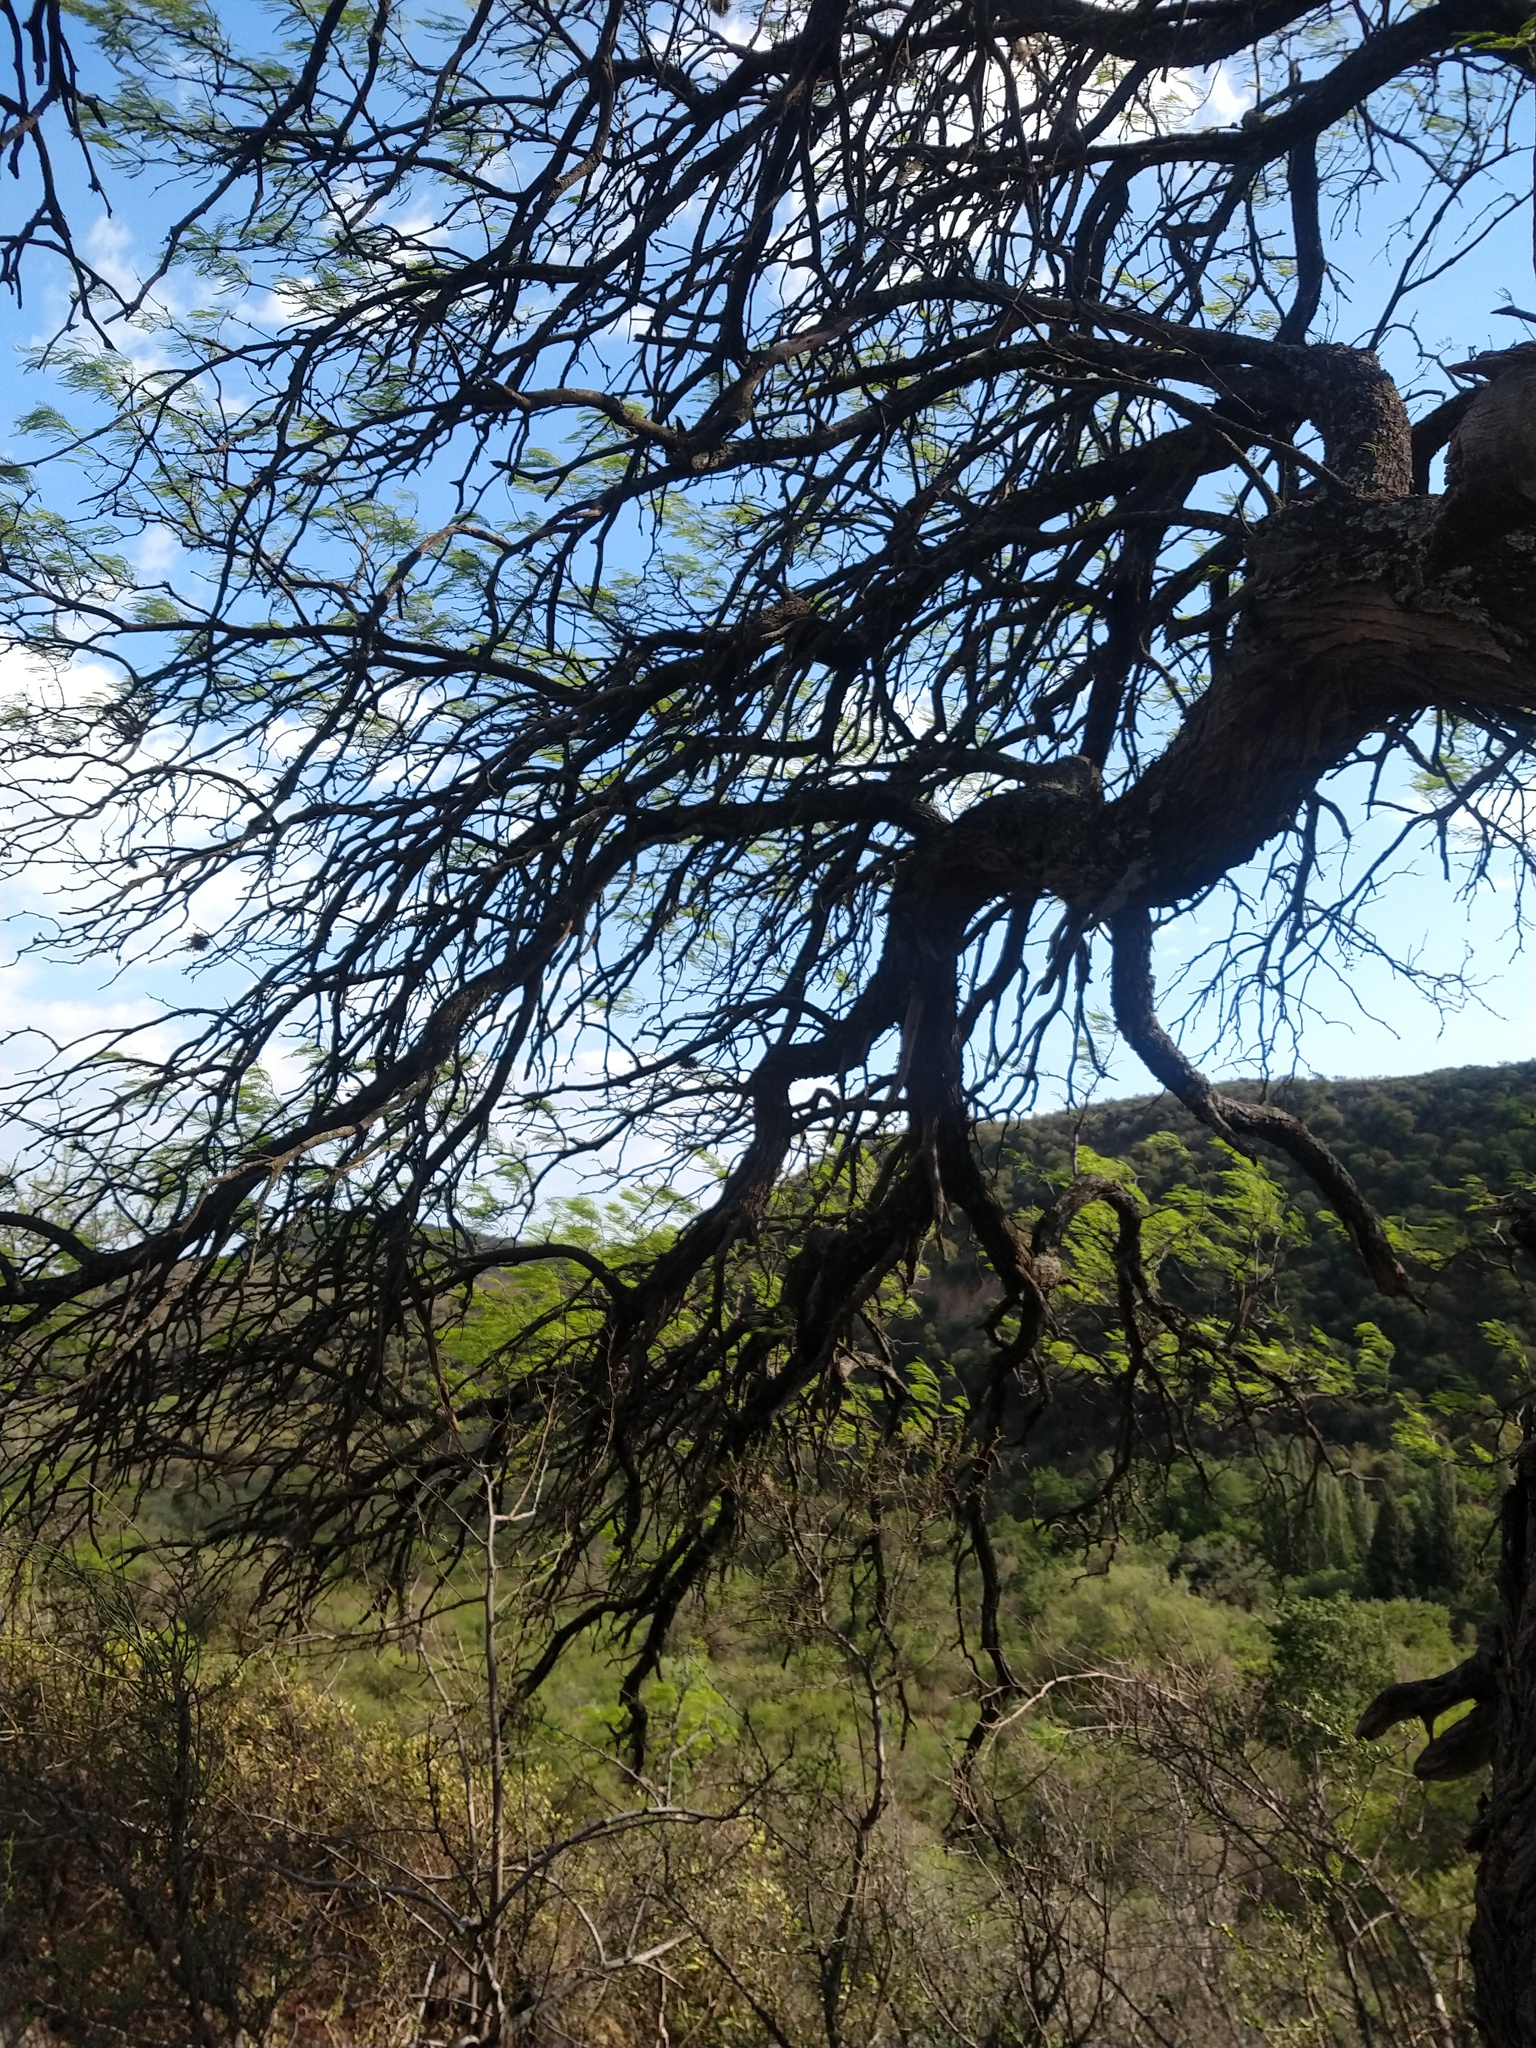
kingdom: Plantae
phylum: Tracheophyta
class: Magnoliopsida
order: Fabales
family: Fabaceae
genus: Prosopis
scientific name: Prosopis flexuosa
